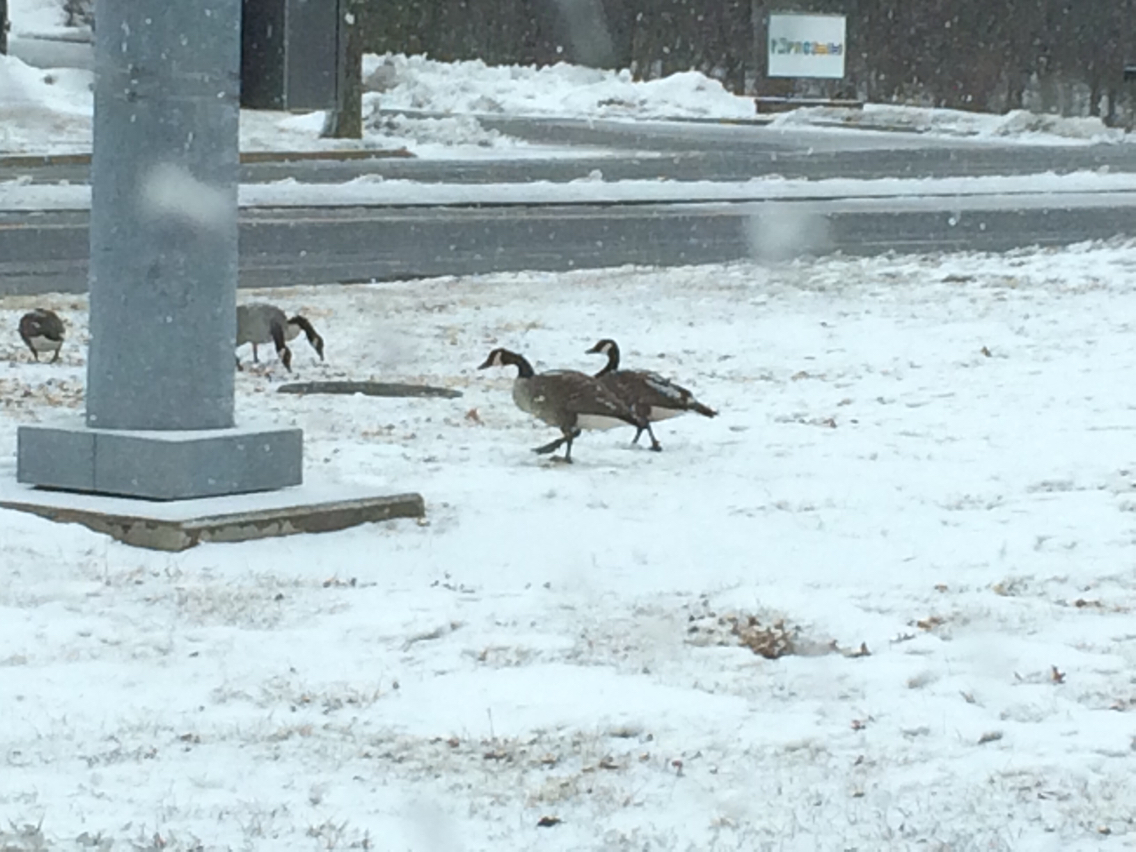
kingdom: Animalia
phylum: Chordata
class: Aves
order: Anseriformes
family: Anatidae
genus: Branta
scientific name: Branta canadensis
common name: Canada goose
